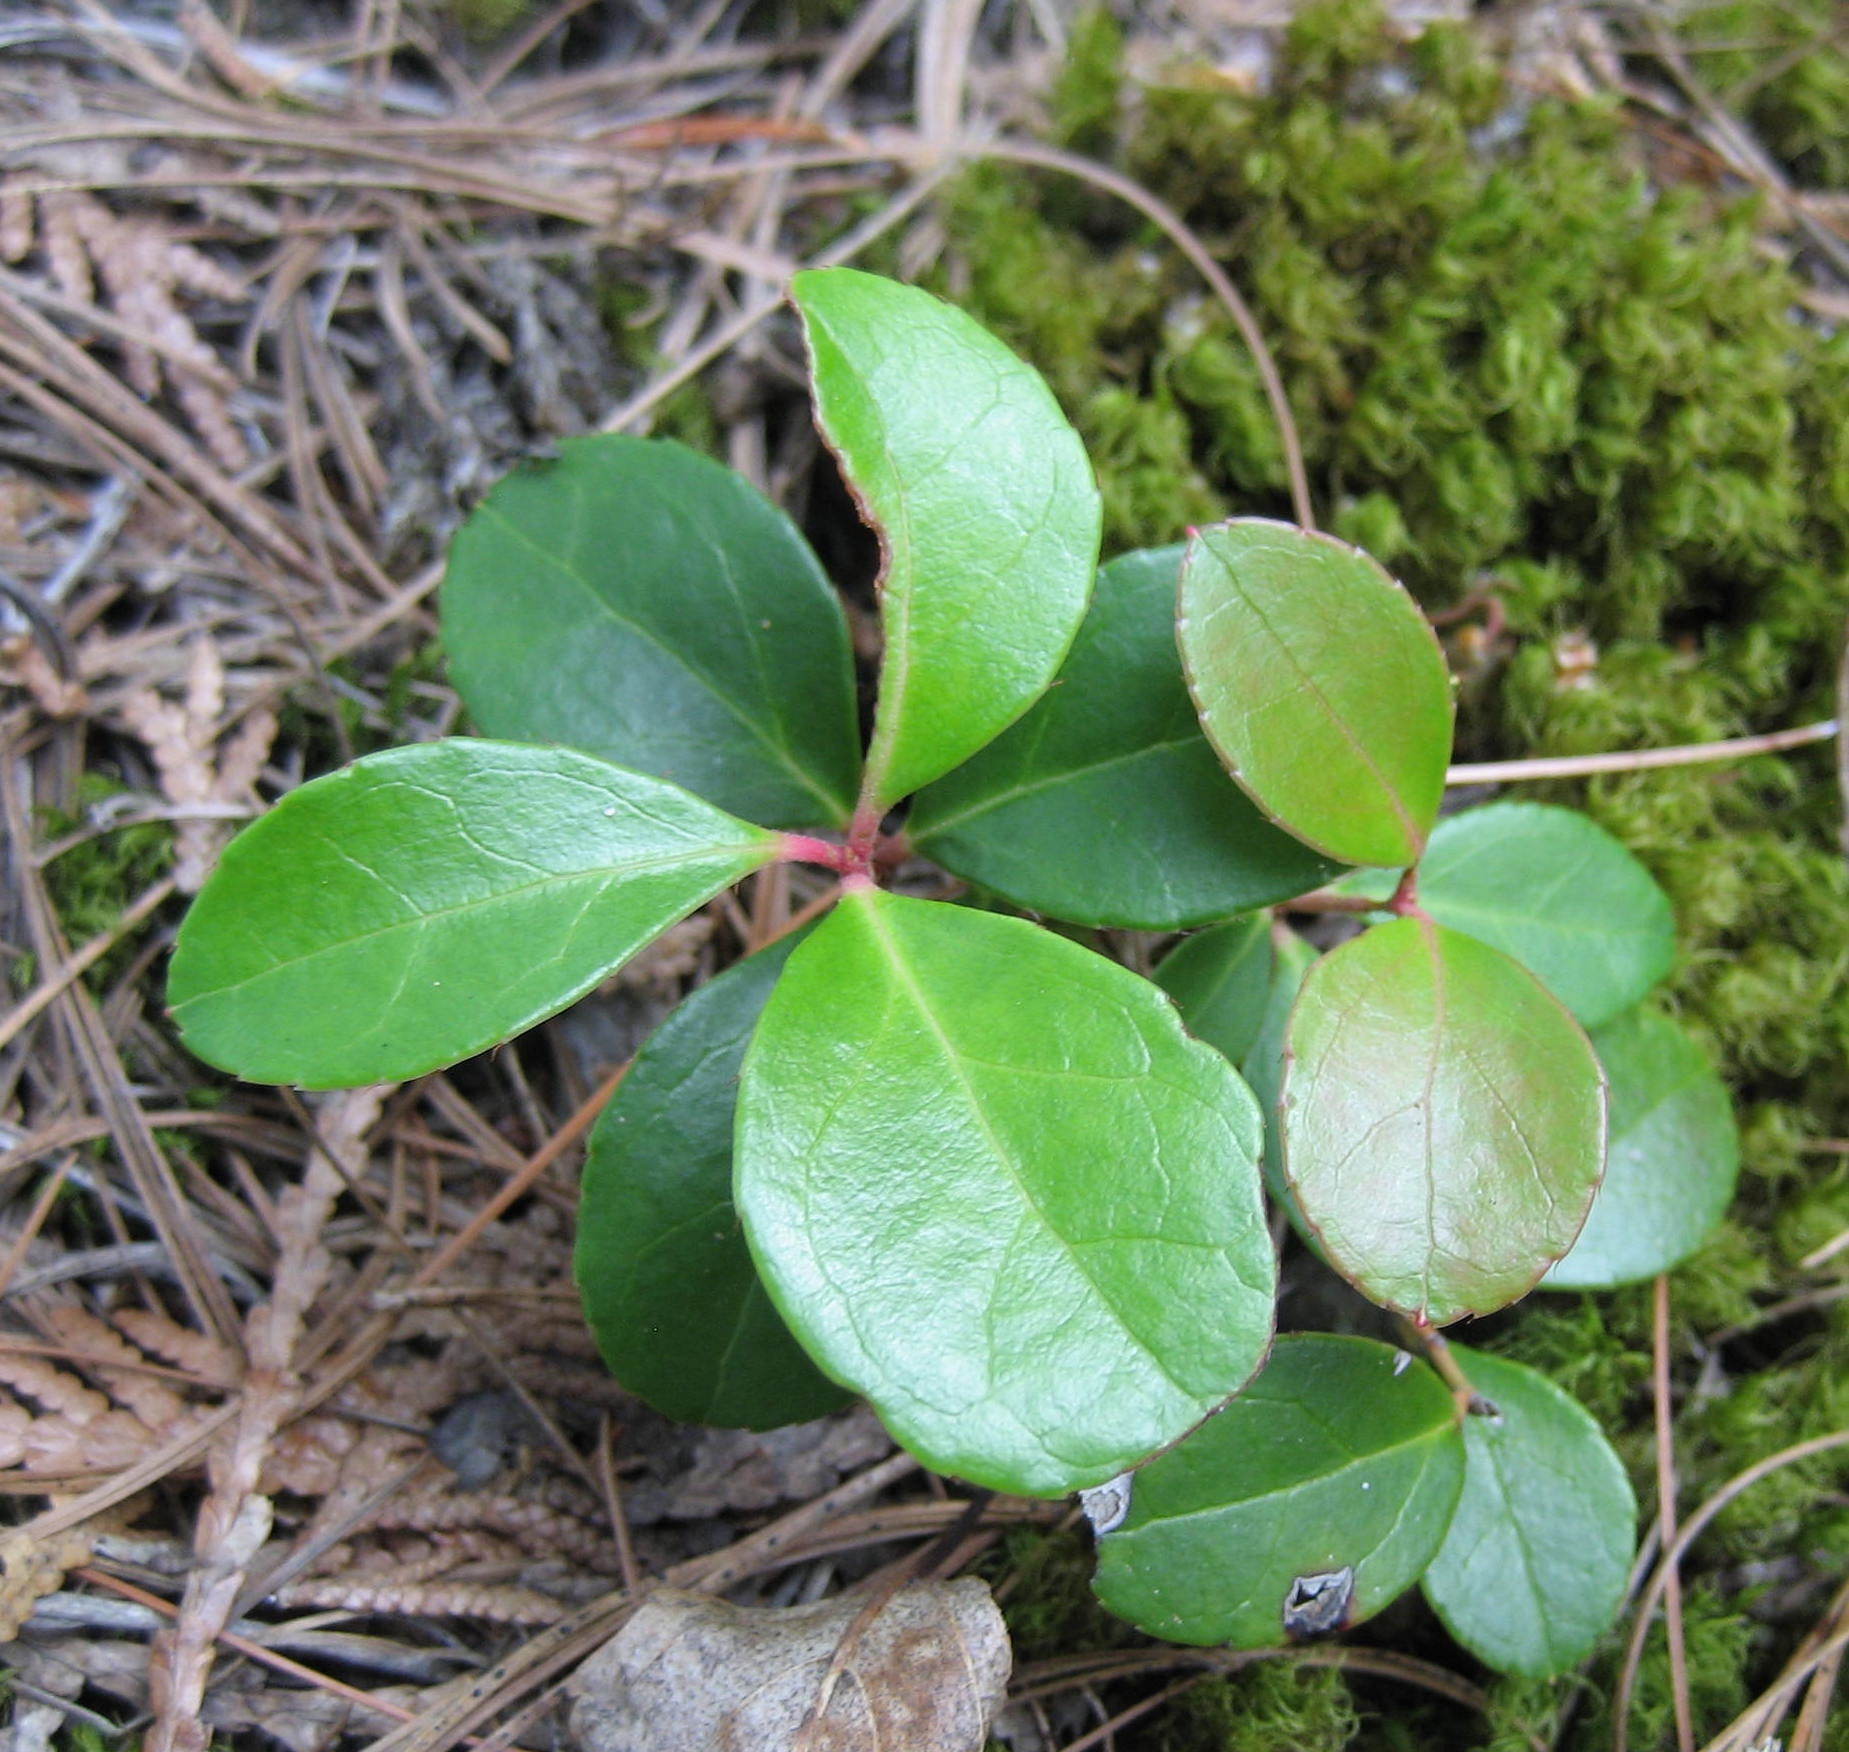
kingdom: Plantae
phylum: Tracheophyta
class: Magnoliopsida
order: Ericales
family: Ericaceae
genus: Gaultheria
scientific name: Gaultheria procumbens
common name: Checkerberry
